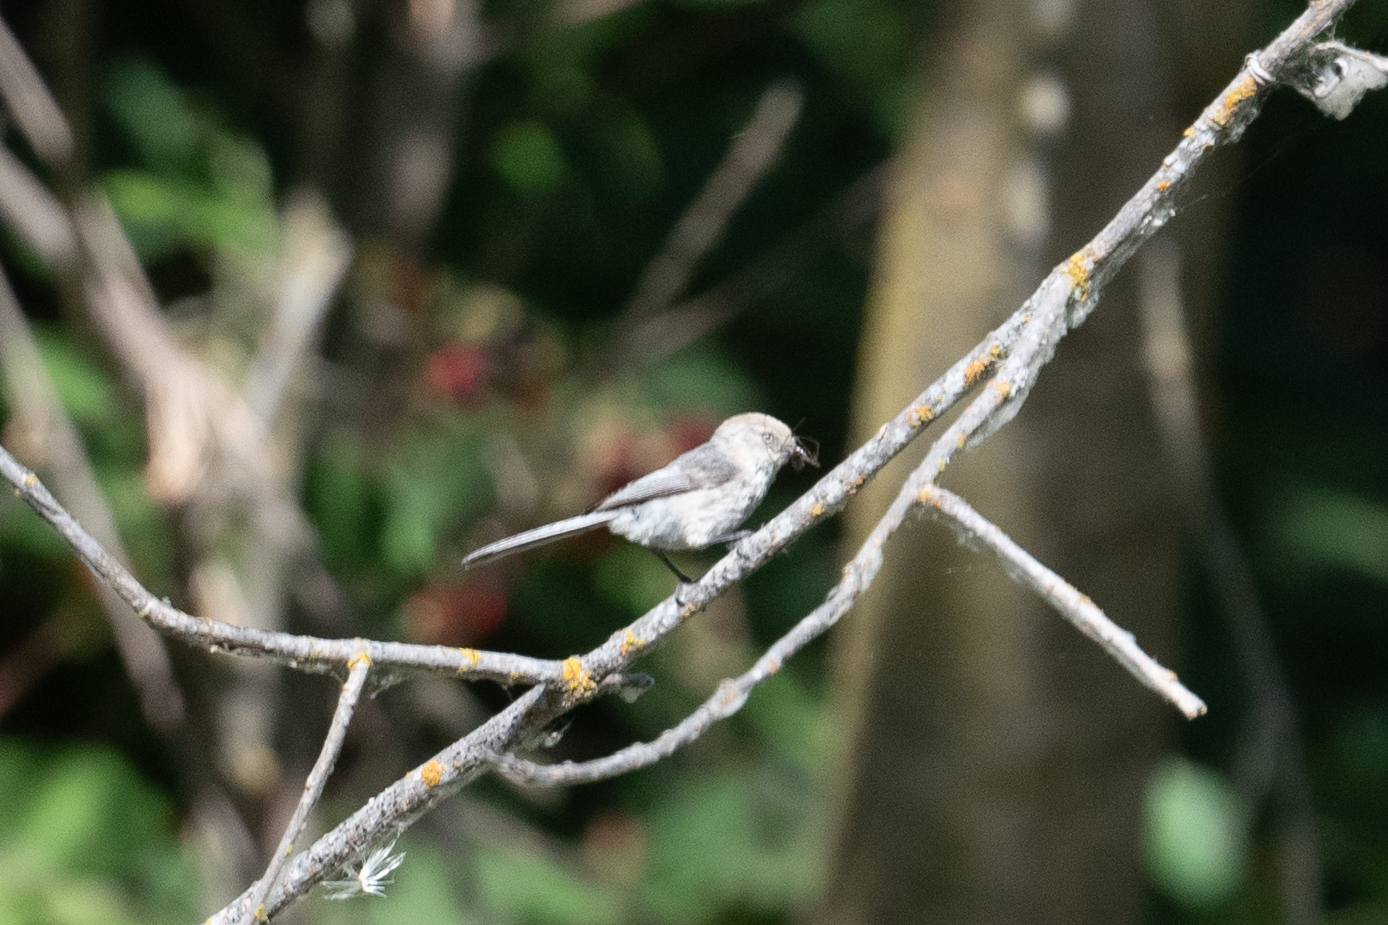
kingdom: Animalia
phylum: Chordata
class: Aves
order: Passeriformes
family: Aegithalidae
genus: Psaltriparus
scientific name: Psaltriparus minimus
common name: American bushtit
